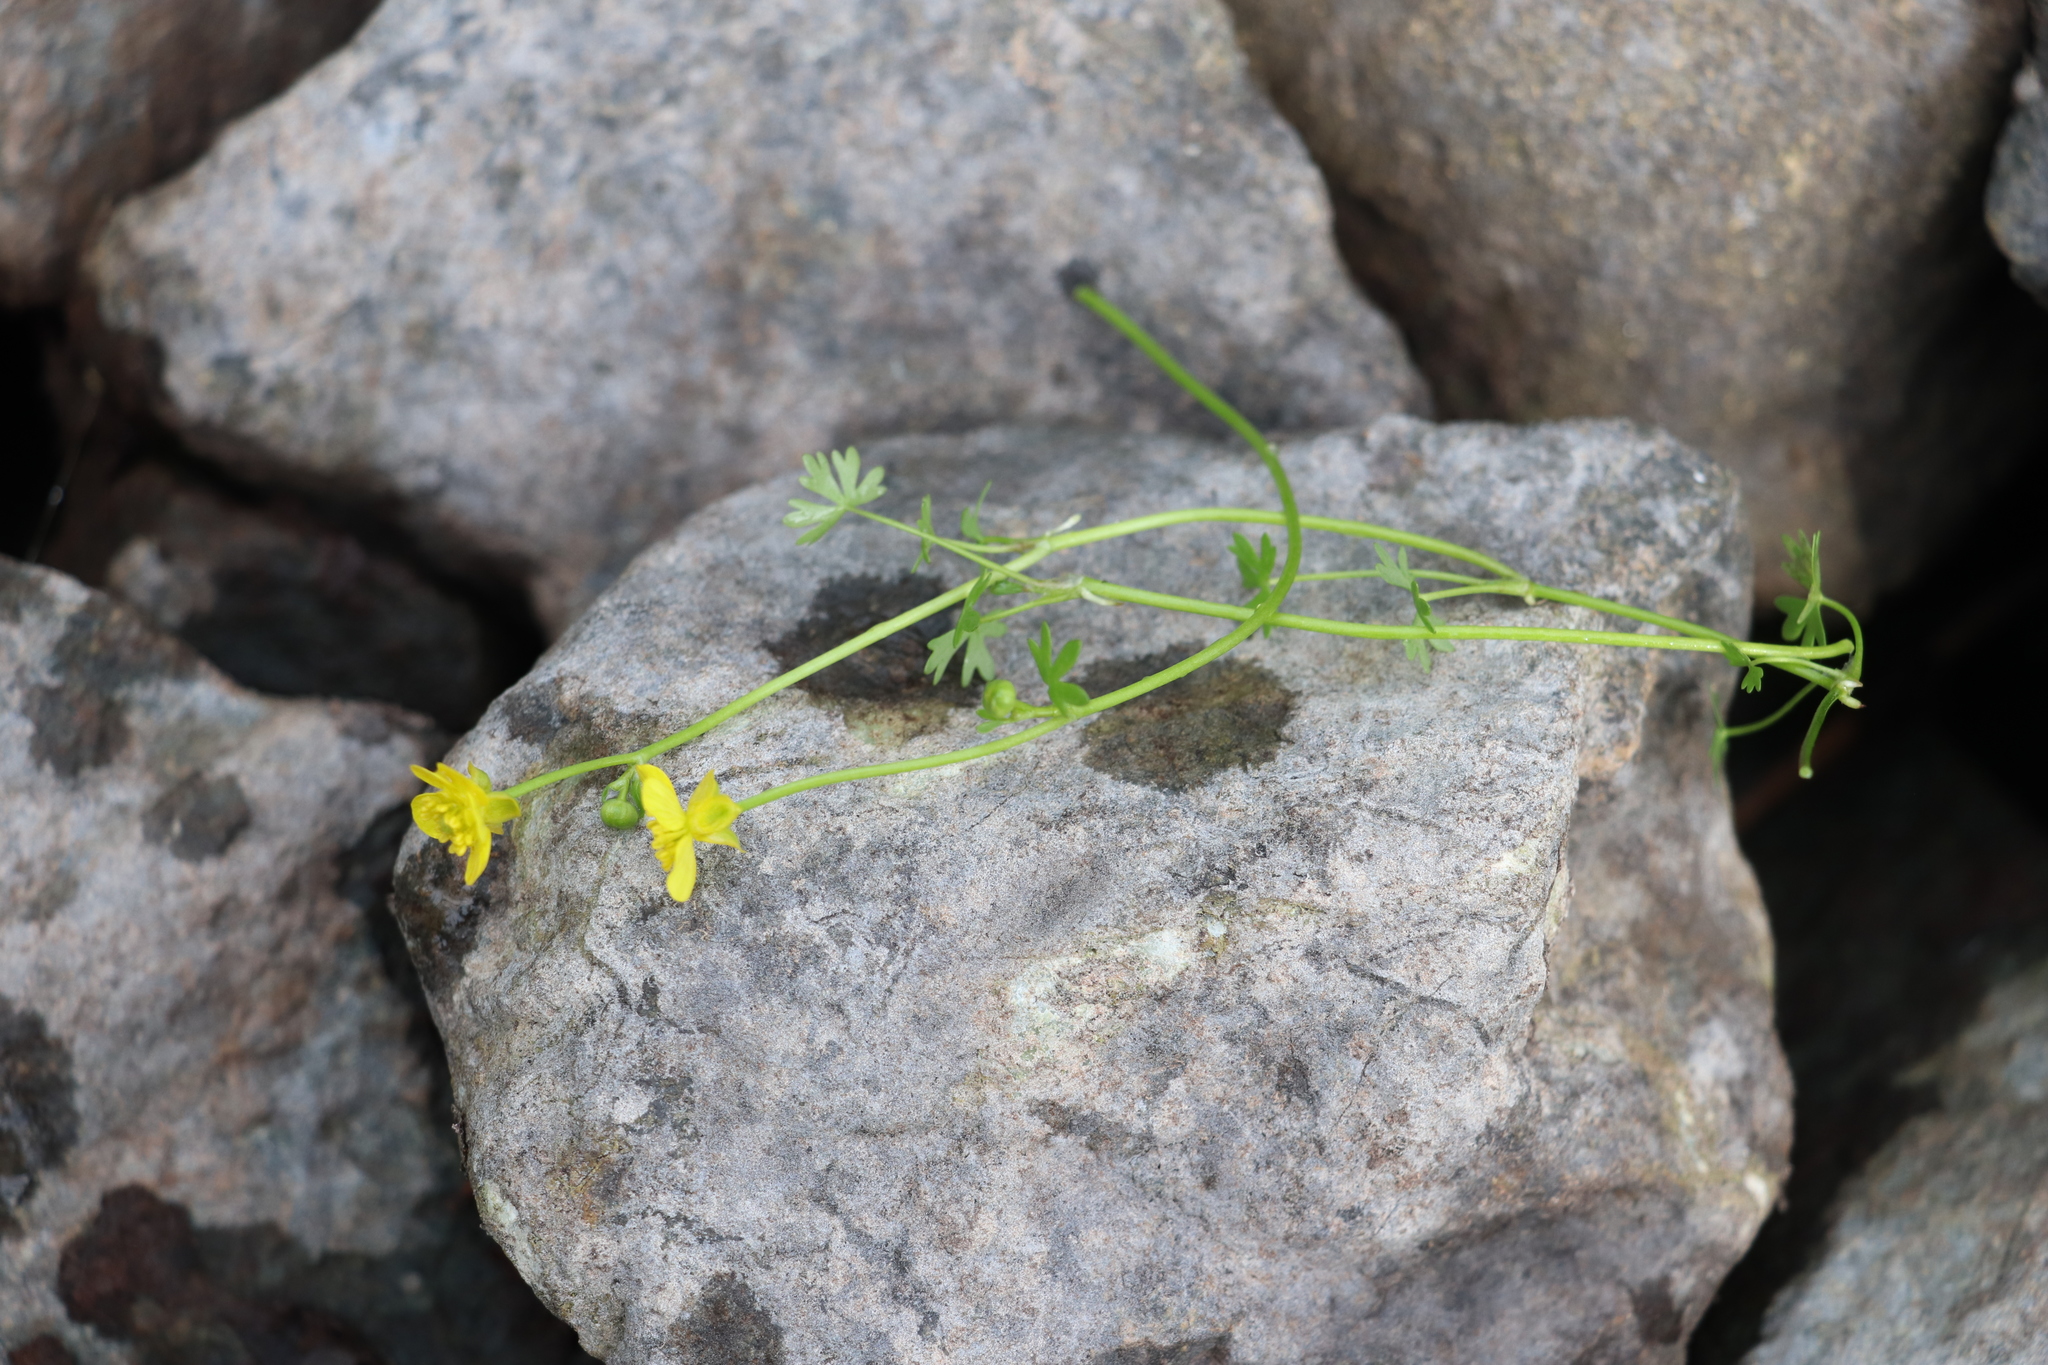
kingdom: Plantae
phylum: Tracheophyta
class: Magnoliopsida
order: Ranunculales
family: Ranunculaceae
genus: Ranunculus
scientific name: Ranunculus gmelinii
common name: Gmelin's buttercup
